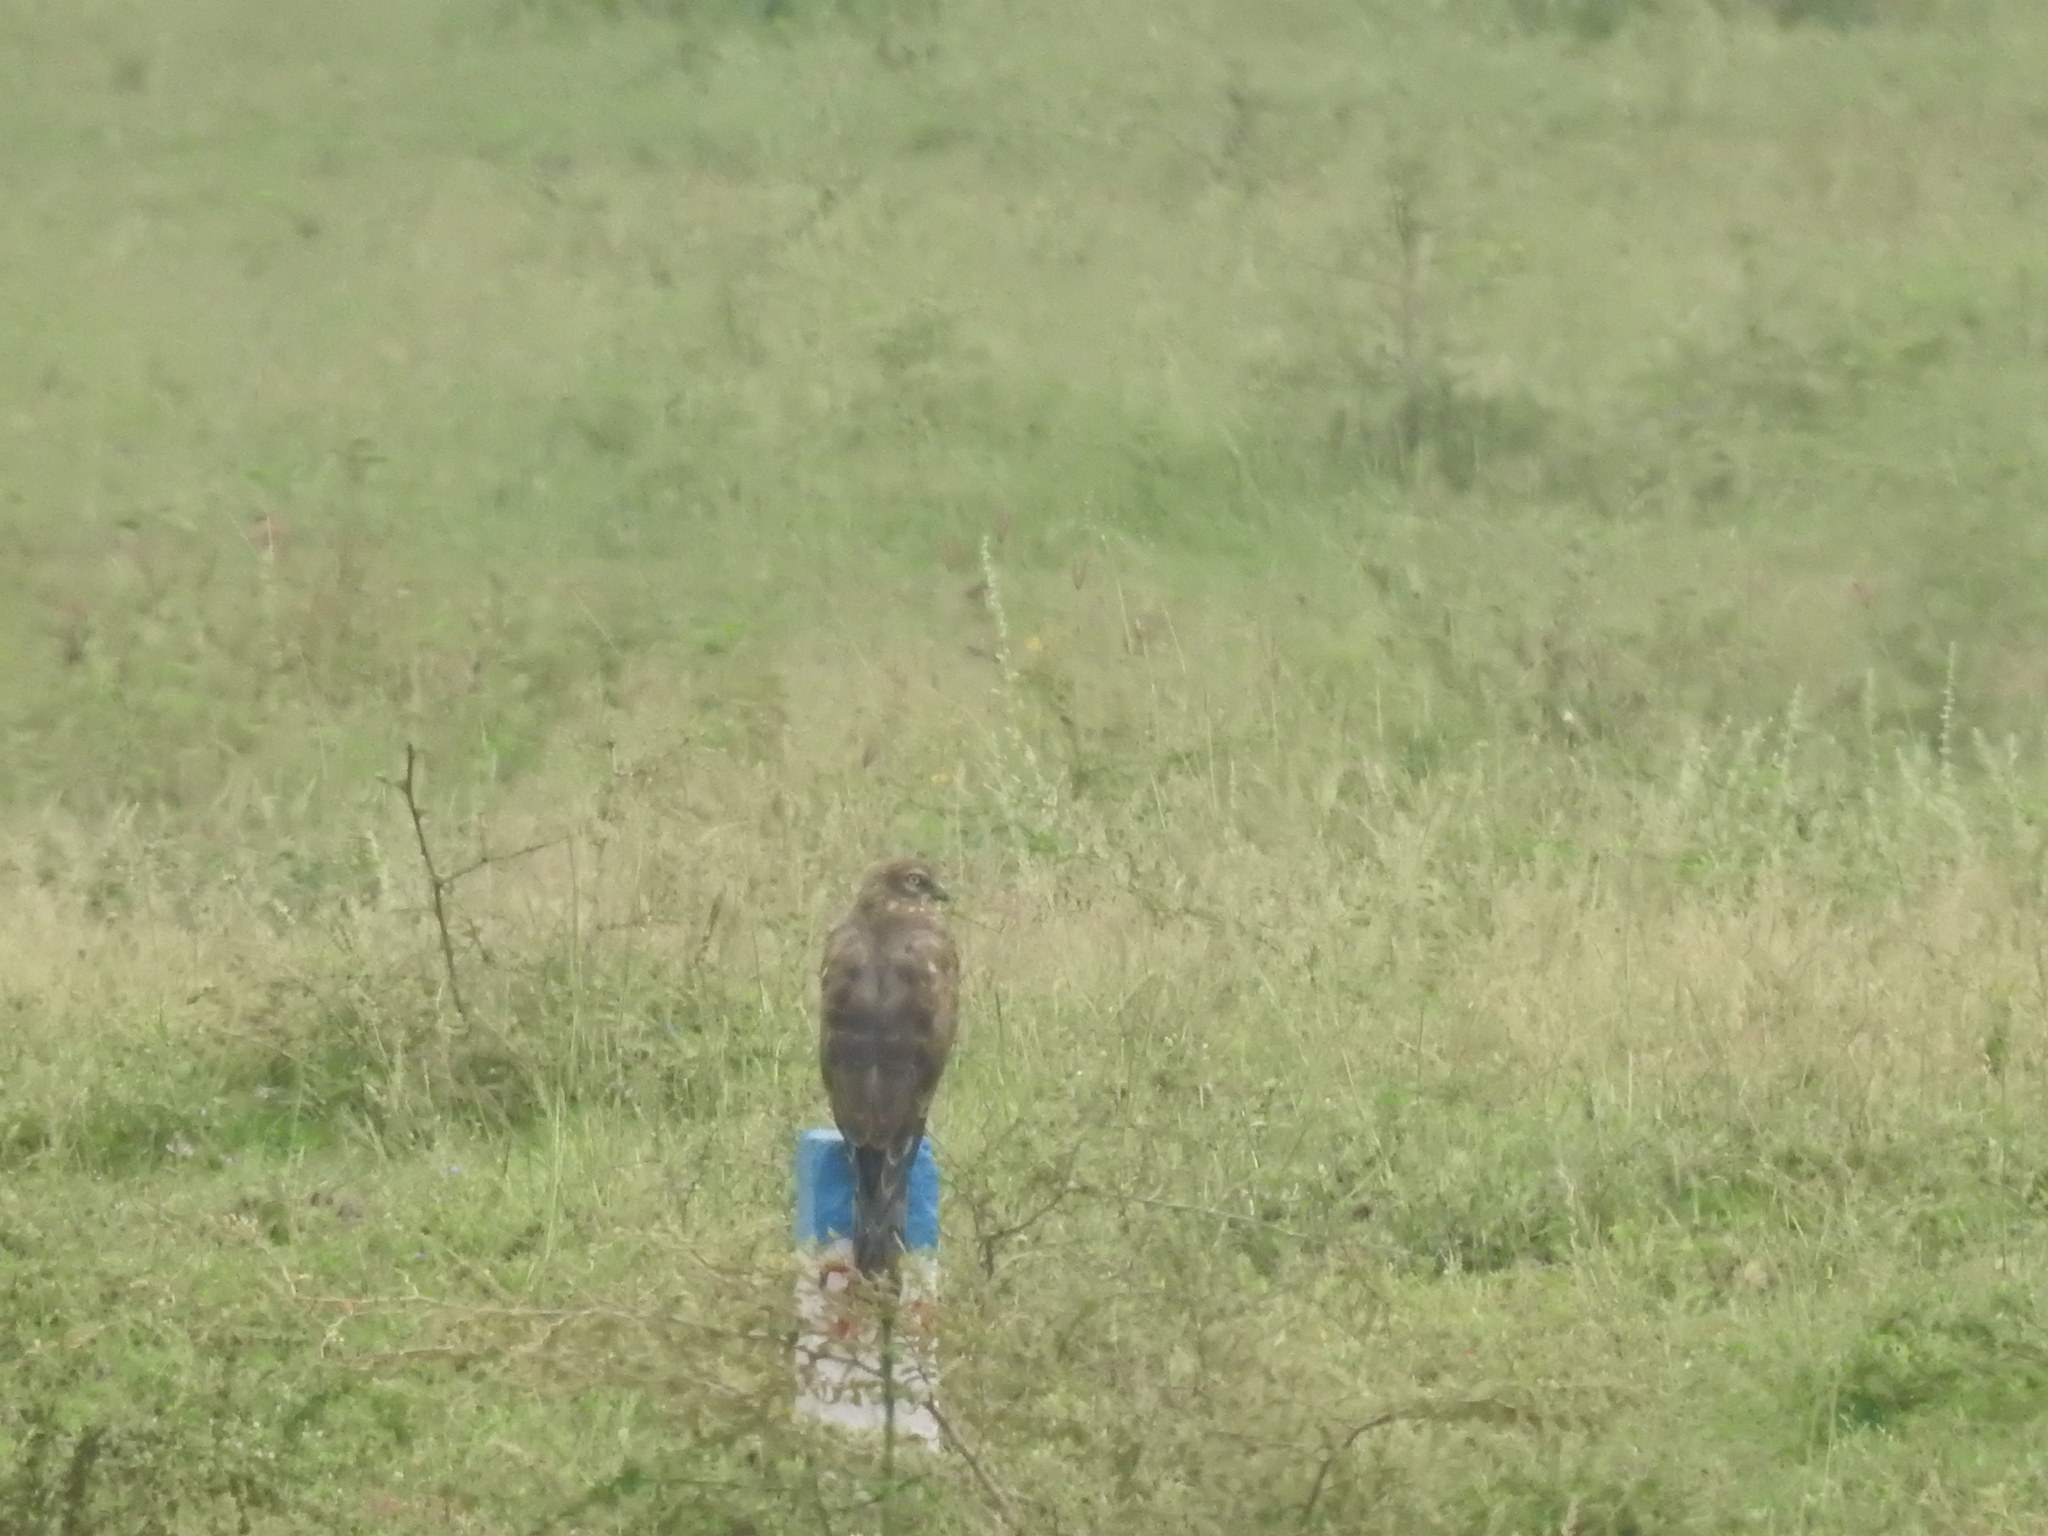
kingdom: Animalia
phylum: Chordata
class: Aves
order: Accipitriformes
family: Accipitridae
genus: Circus
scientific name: Circus pygargus
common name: Montagu's harrier
